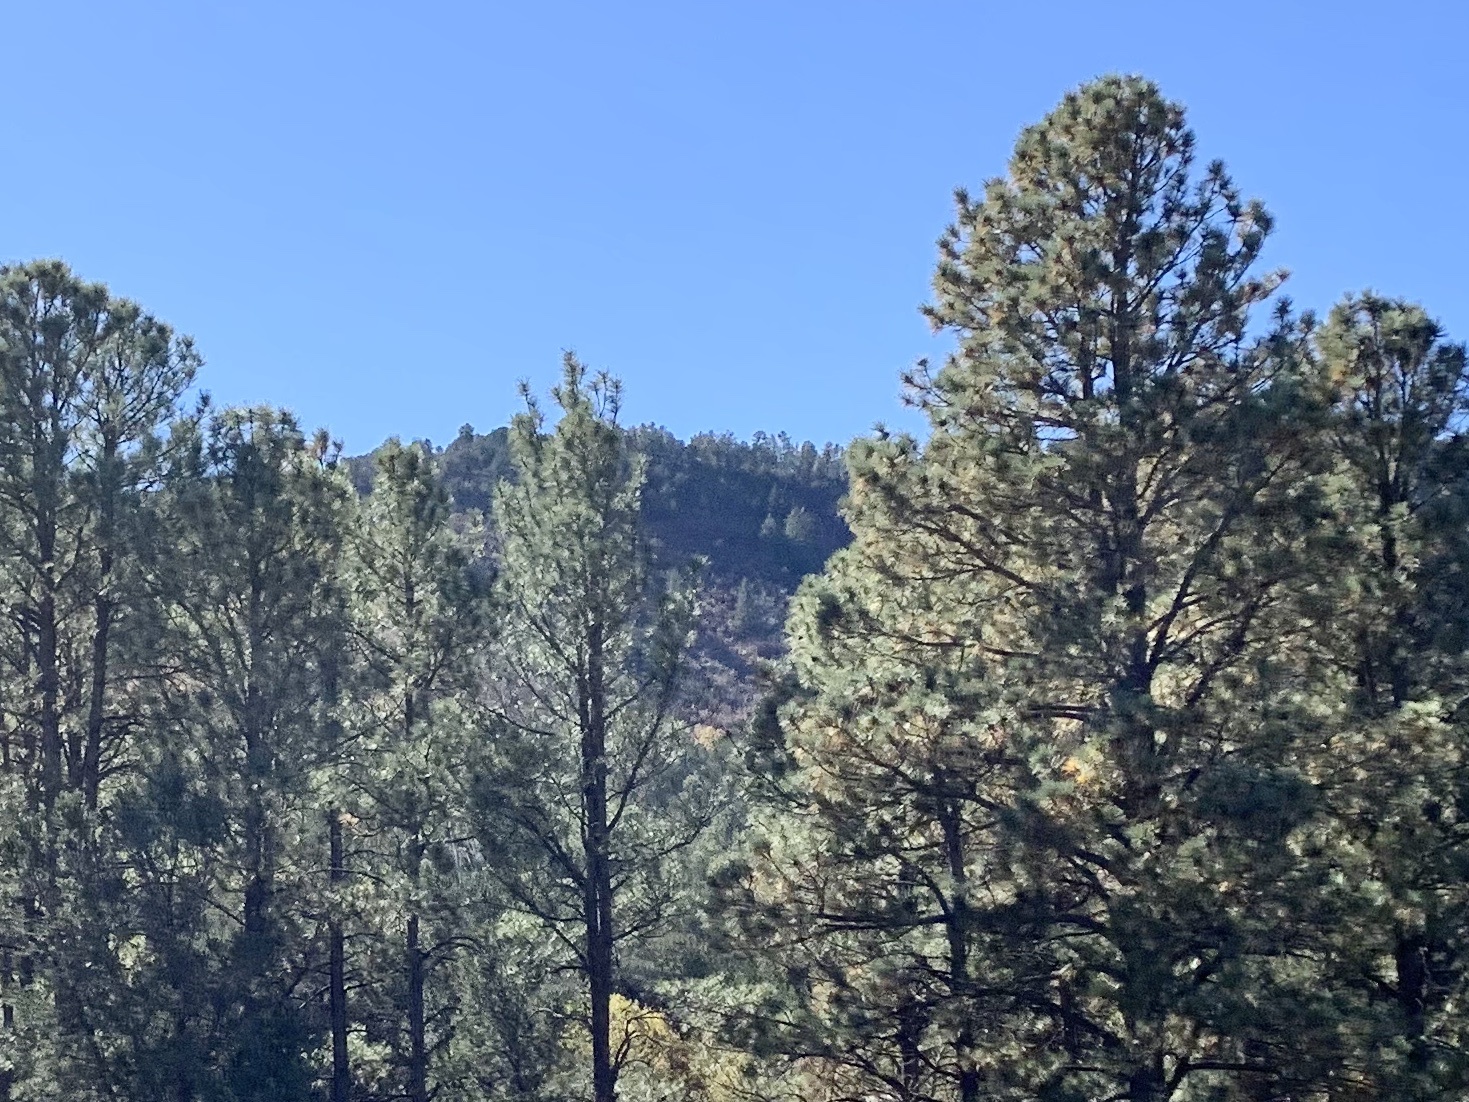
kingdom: Plantae
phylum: Tracheophyta
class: Pinopsida
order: Pinales
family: Pinaceae
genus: Pinus
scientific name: Pinus ponderosa
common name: Western yellow-pine
